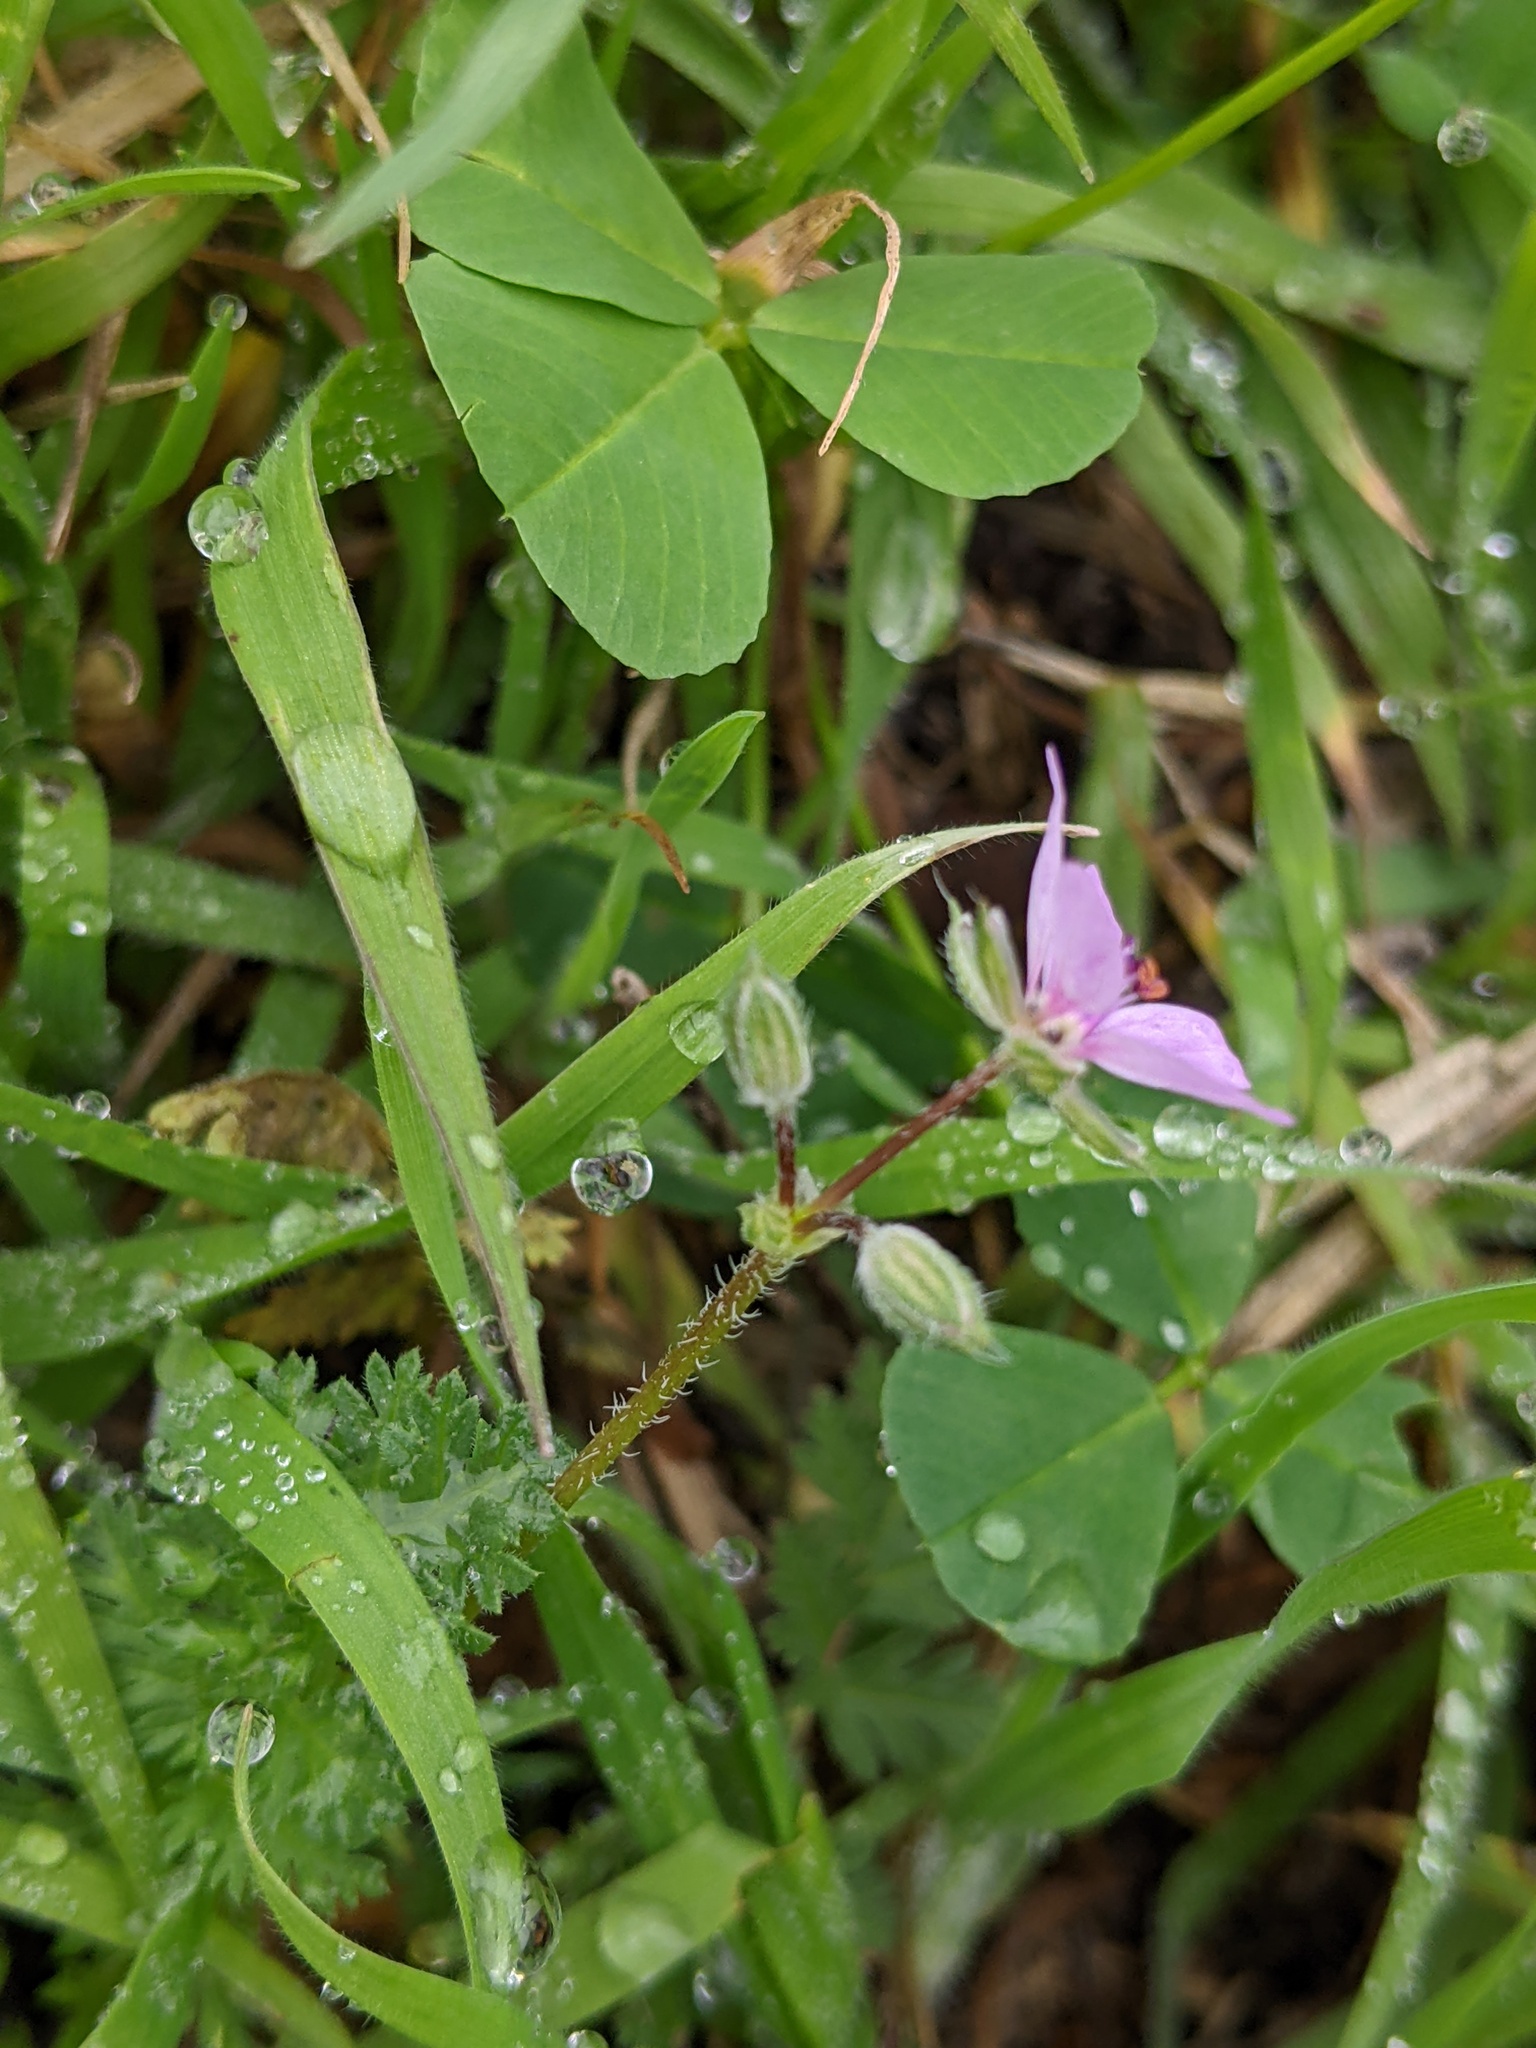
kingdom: Plantae
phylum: Tracheophyta
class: Magnoliopsida
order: Geraniales
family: Geraniaceae
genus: Erodium
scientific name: Erodium cicutarium
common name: Common stork's-bill
